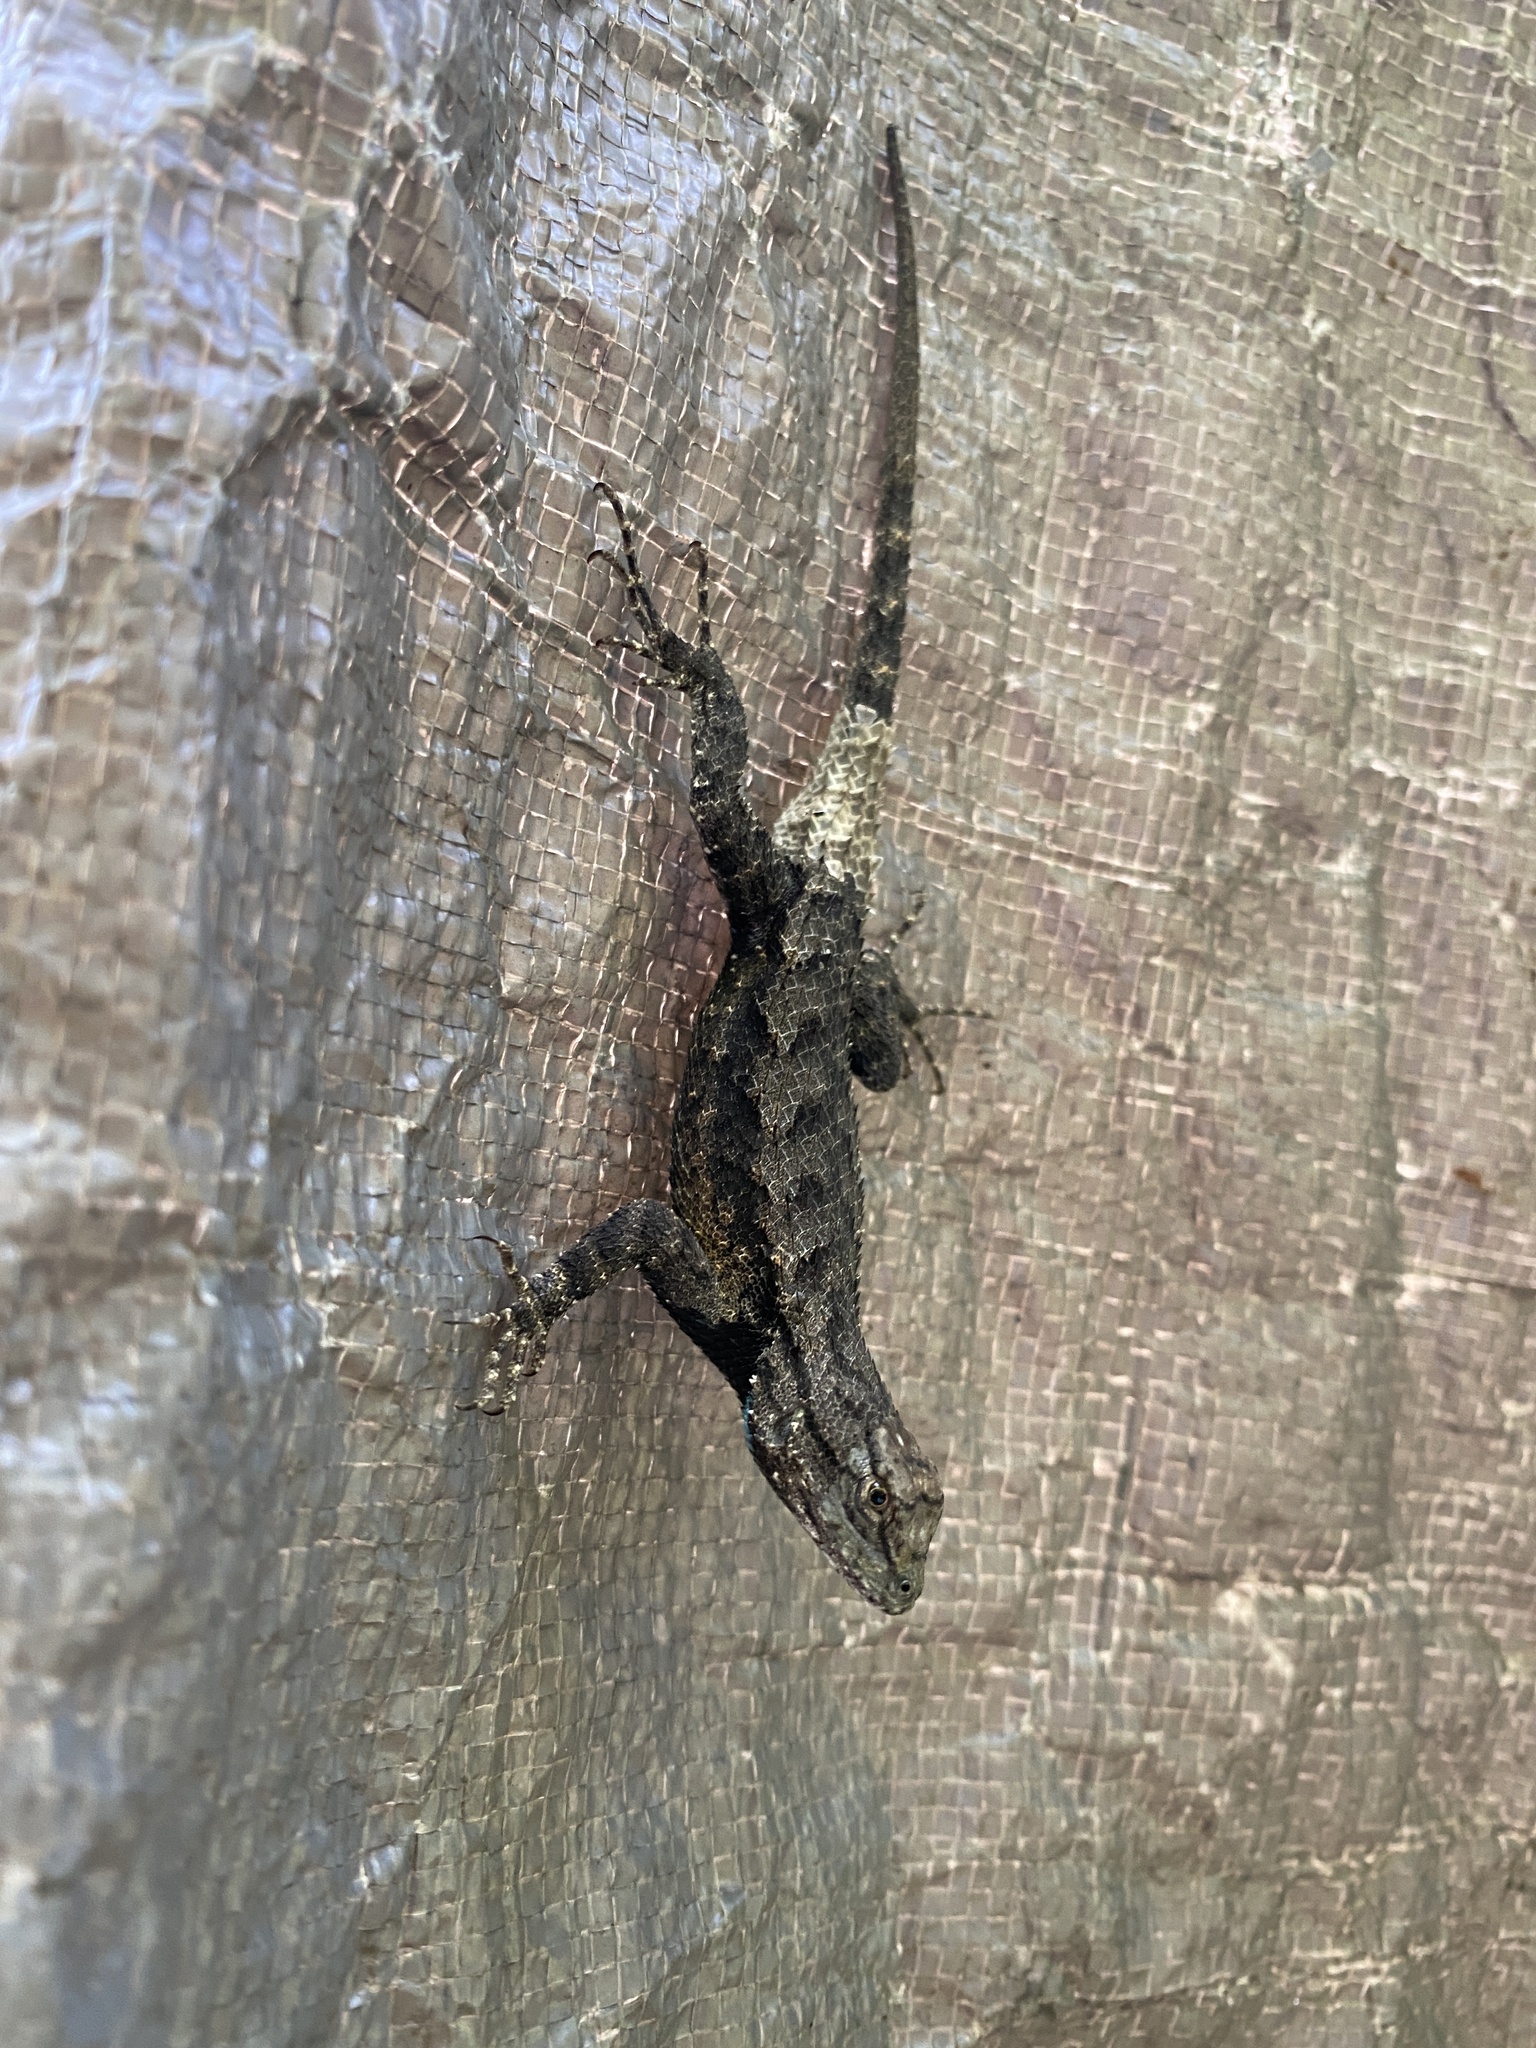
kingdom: Animalia
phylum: Chordata
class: Squamata
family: Phrynosomatidae
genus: Sceloporus
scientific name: Sceloporus consobrinus
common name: Southern prairie lizard
